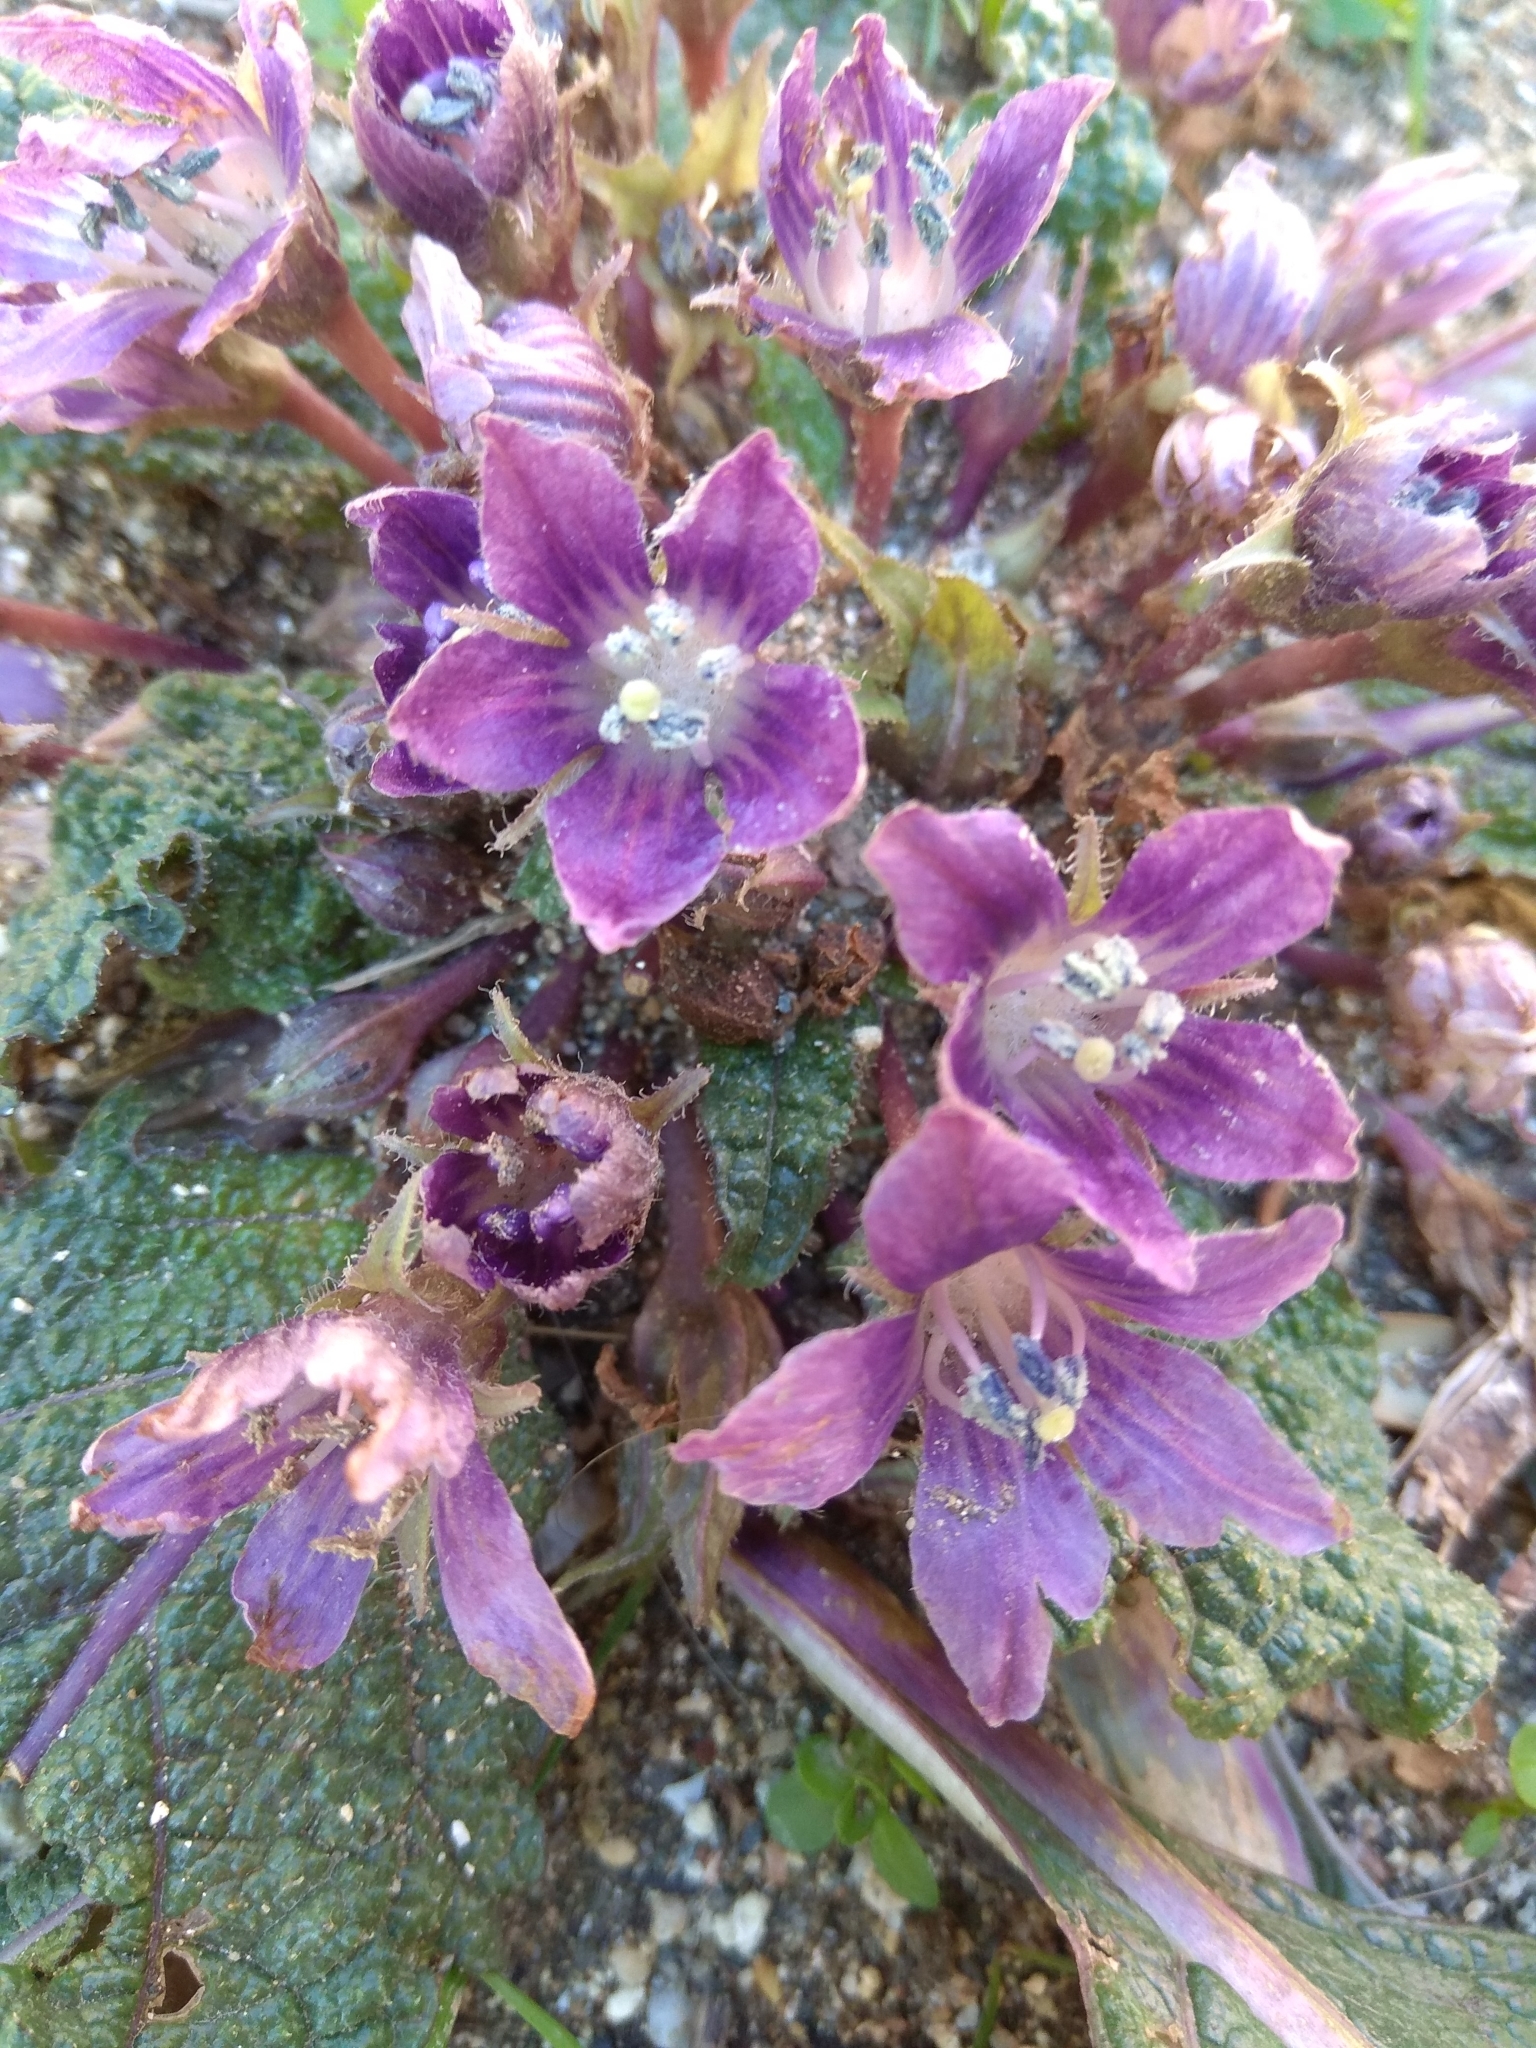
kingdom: Plantae
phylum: Tracheophyta
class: Magnoliopsida
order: Solanales
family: Solanaceae
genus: Mandragora
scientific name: Mandragora officinarum
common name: Mandrake
